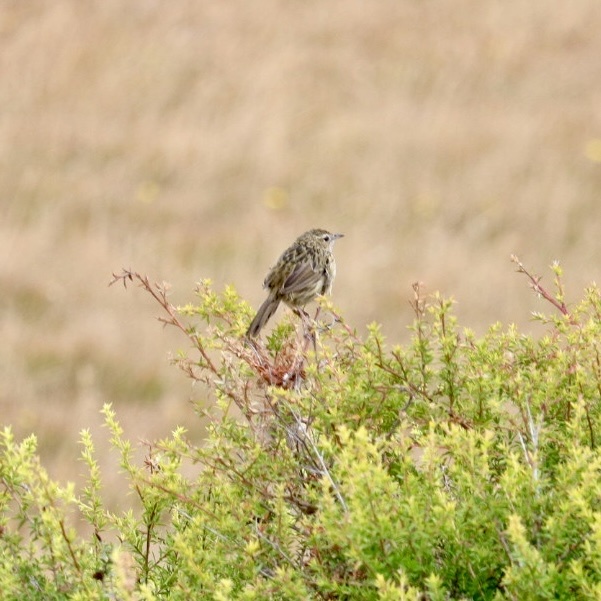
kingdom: Animalia
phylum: Chordata
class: Aves
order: Passeriformes
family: Acanthizidae
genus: Calamanthus
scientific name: Calamanthus fuliginosus
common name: Striated fieldwren
